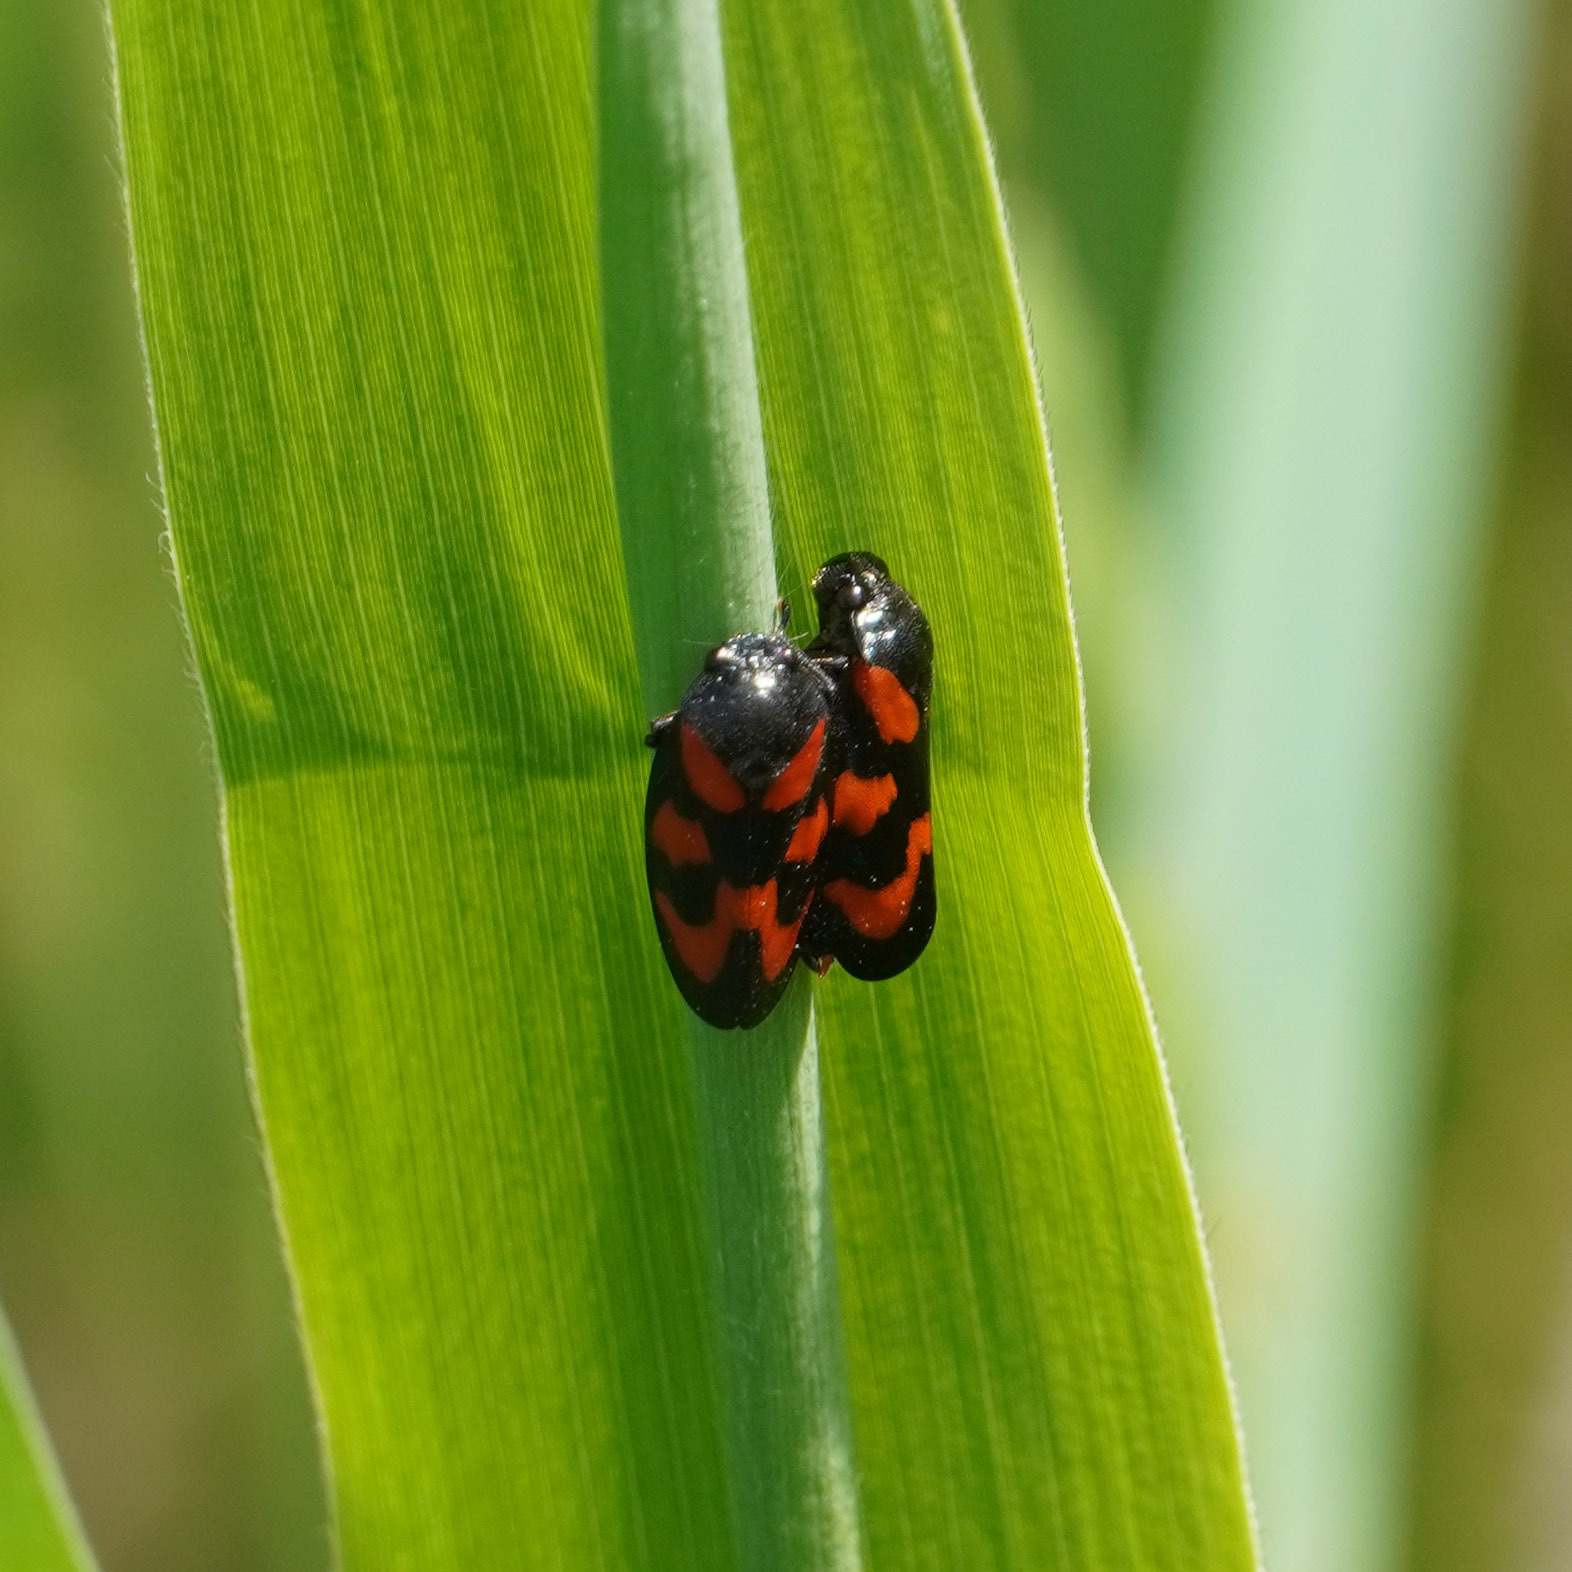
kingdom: Animalia
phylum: Arthropoda
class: Insecta
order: Hemiptera
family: Cercopidae
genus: Cercopis
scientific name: Cercopis vulnerata
